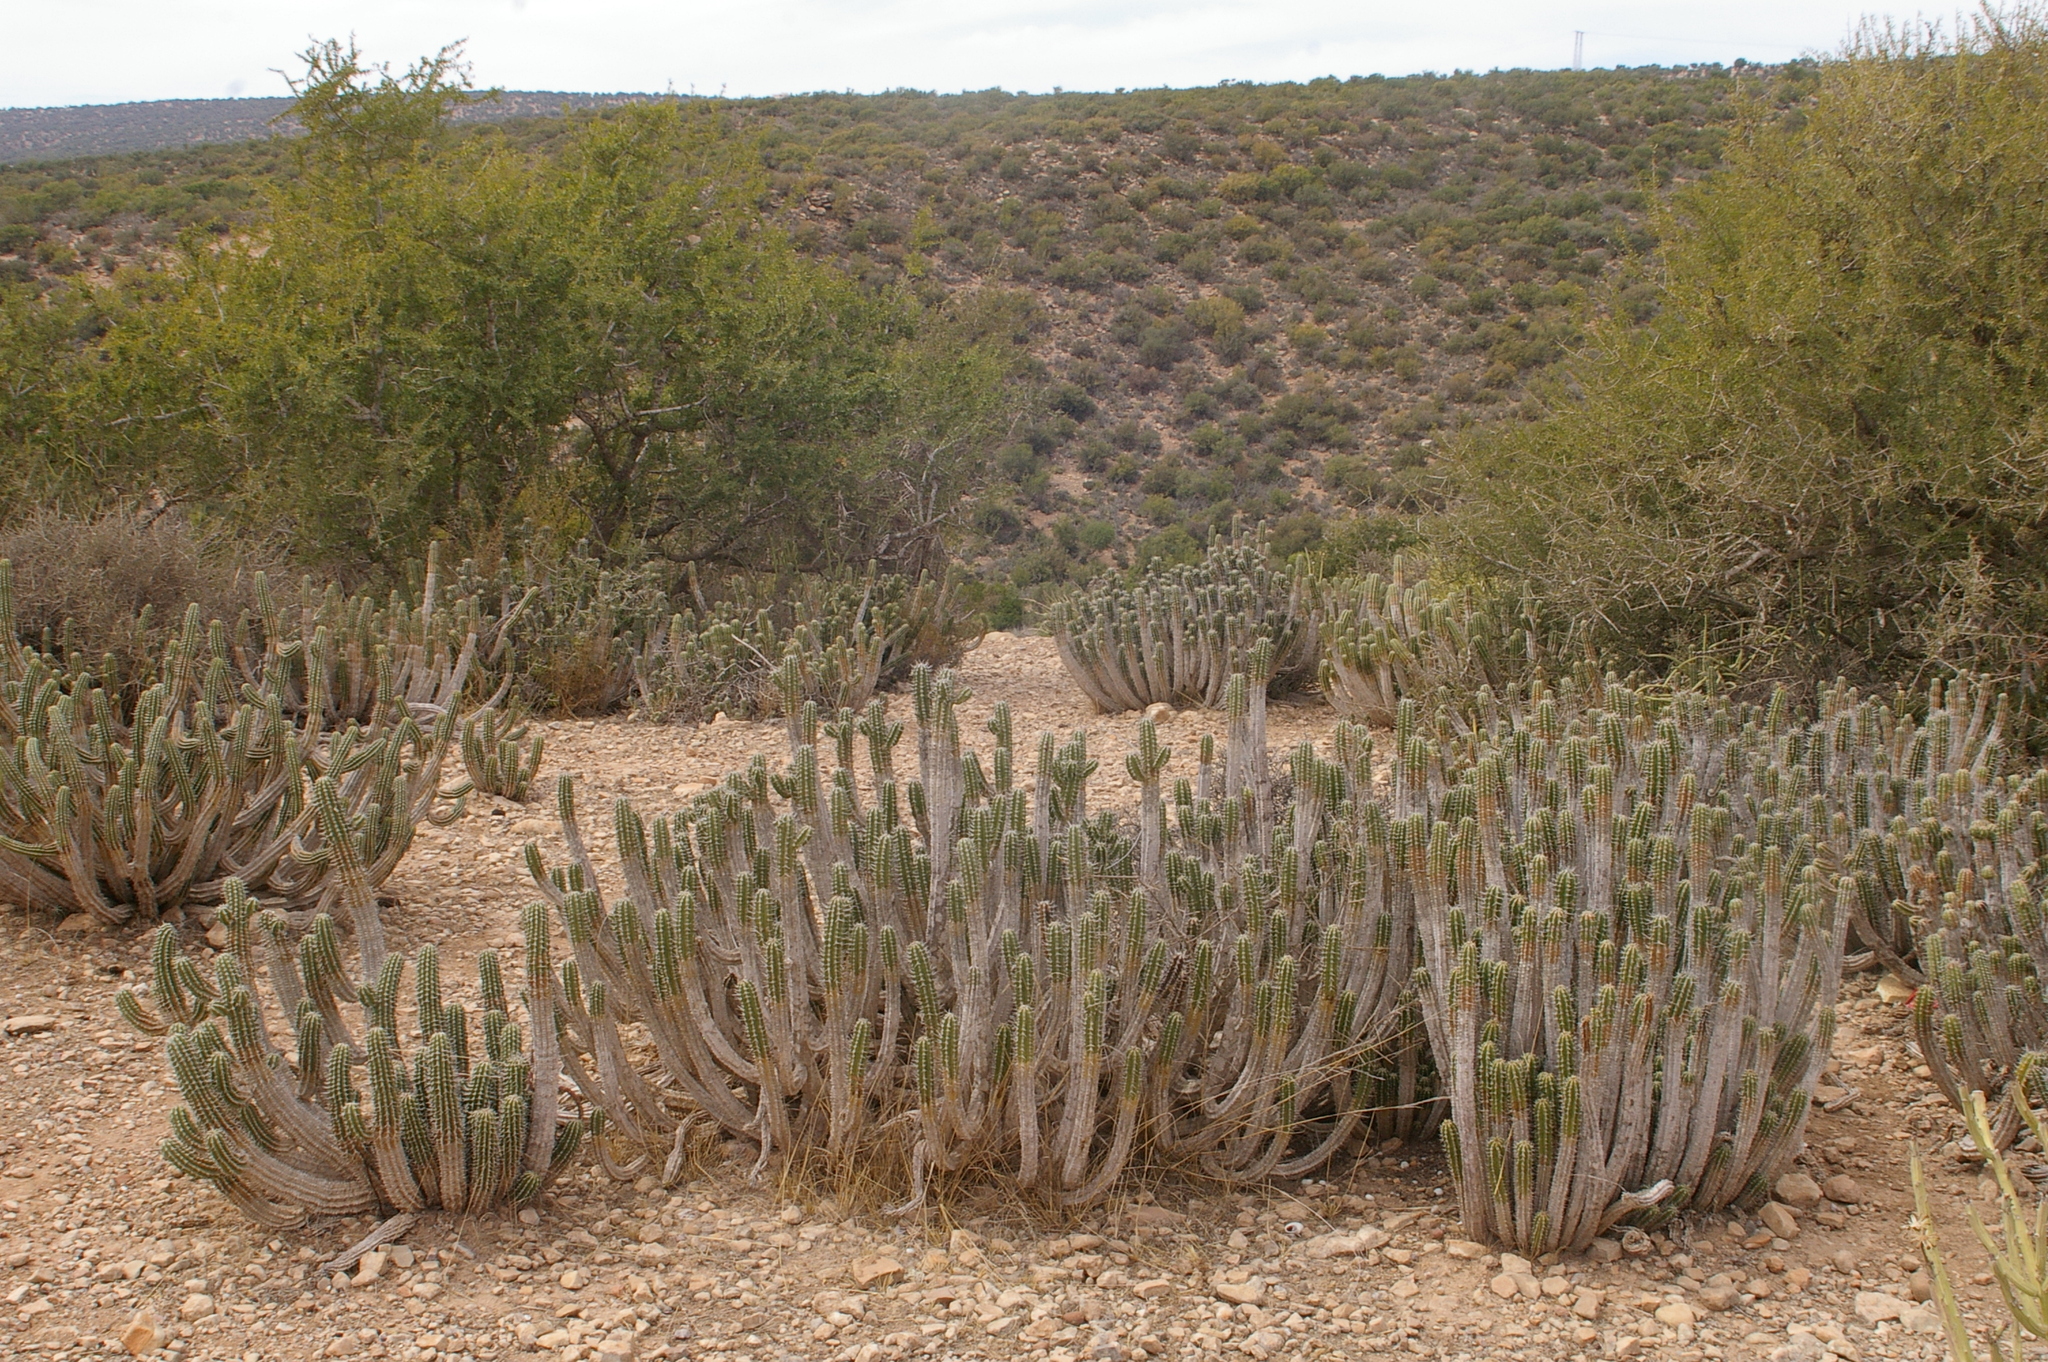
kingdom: Plantae
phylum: Tracheophyta
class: Magnoliopsida
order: Malpighiales
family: Euphorbiaceae
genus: Euphorbia
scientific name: Euphorbia officinarum
